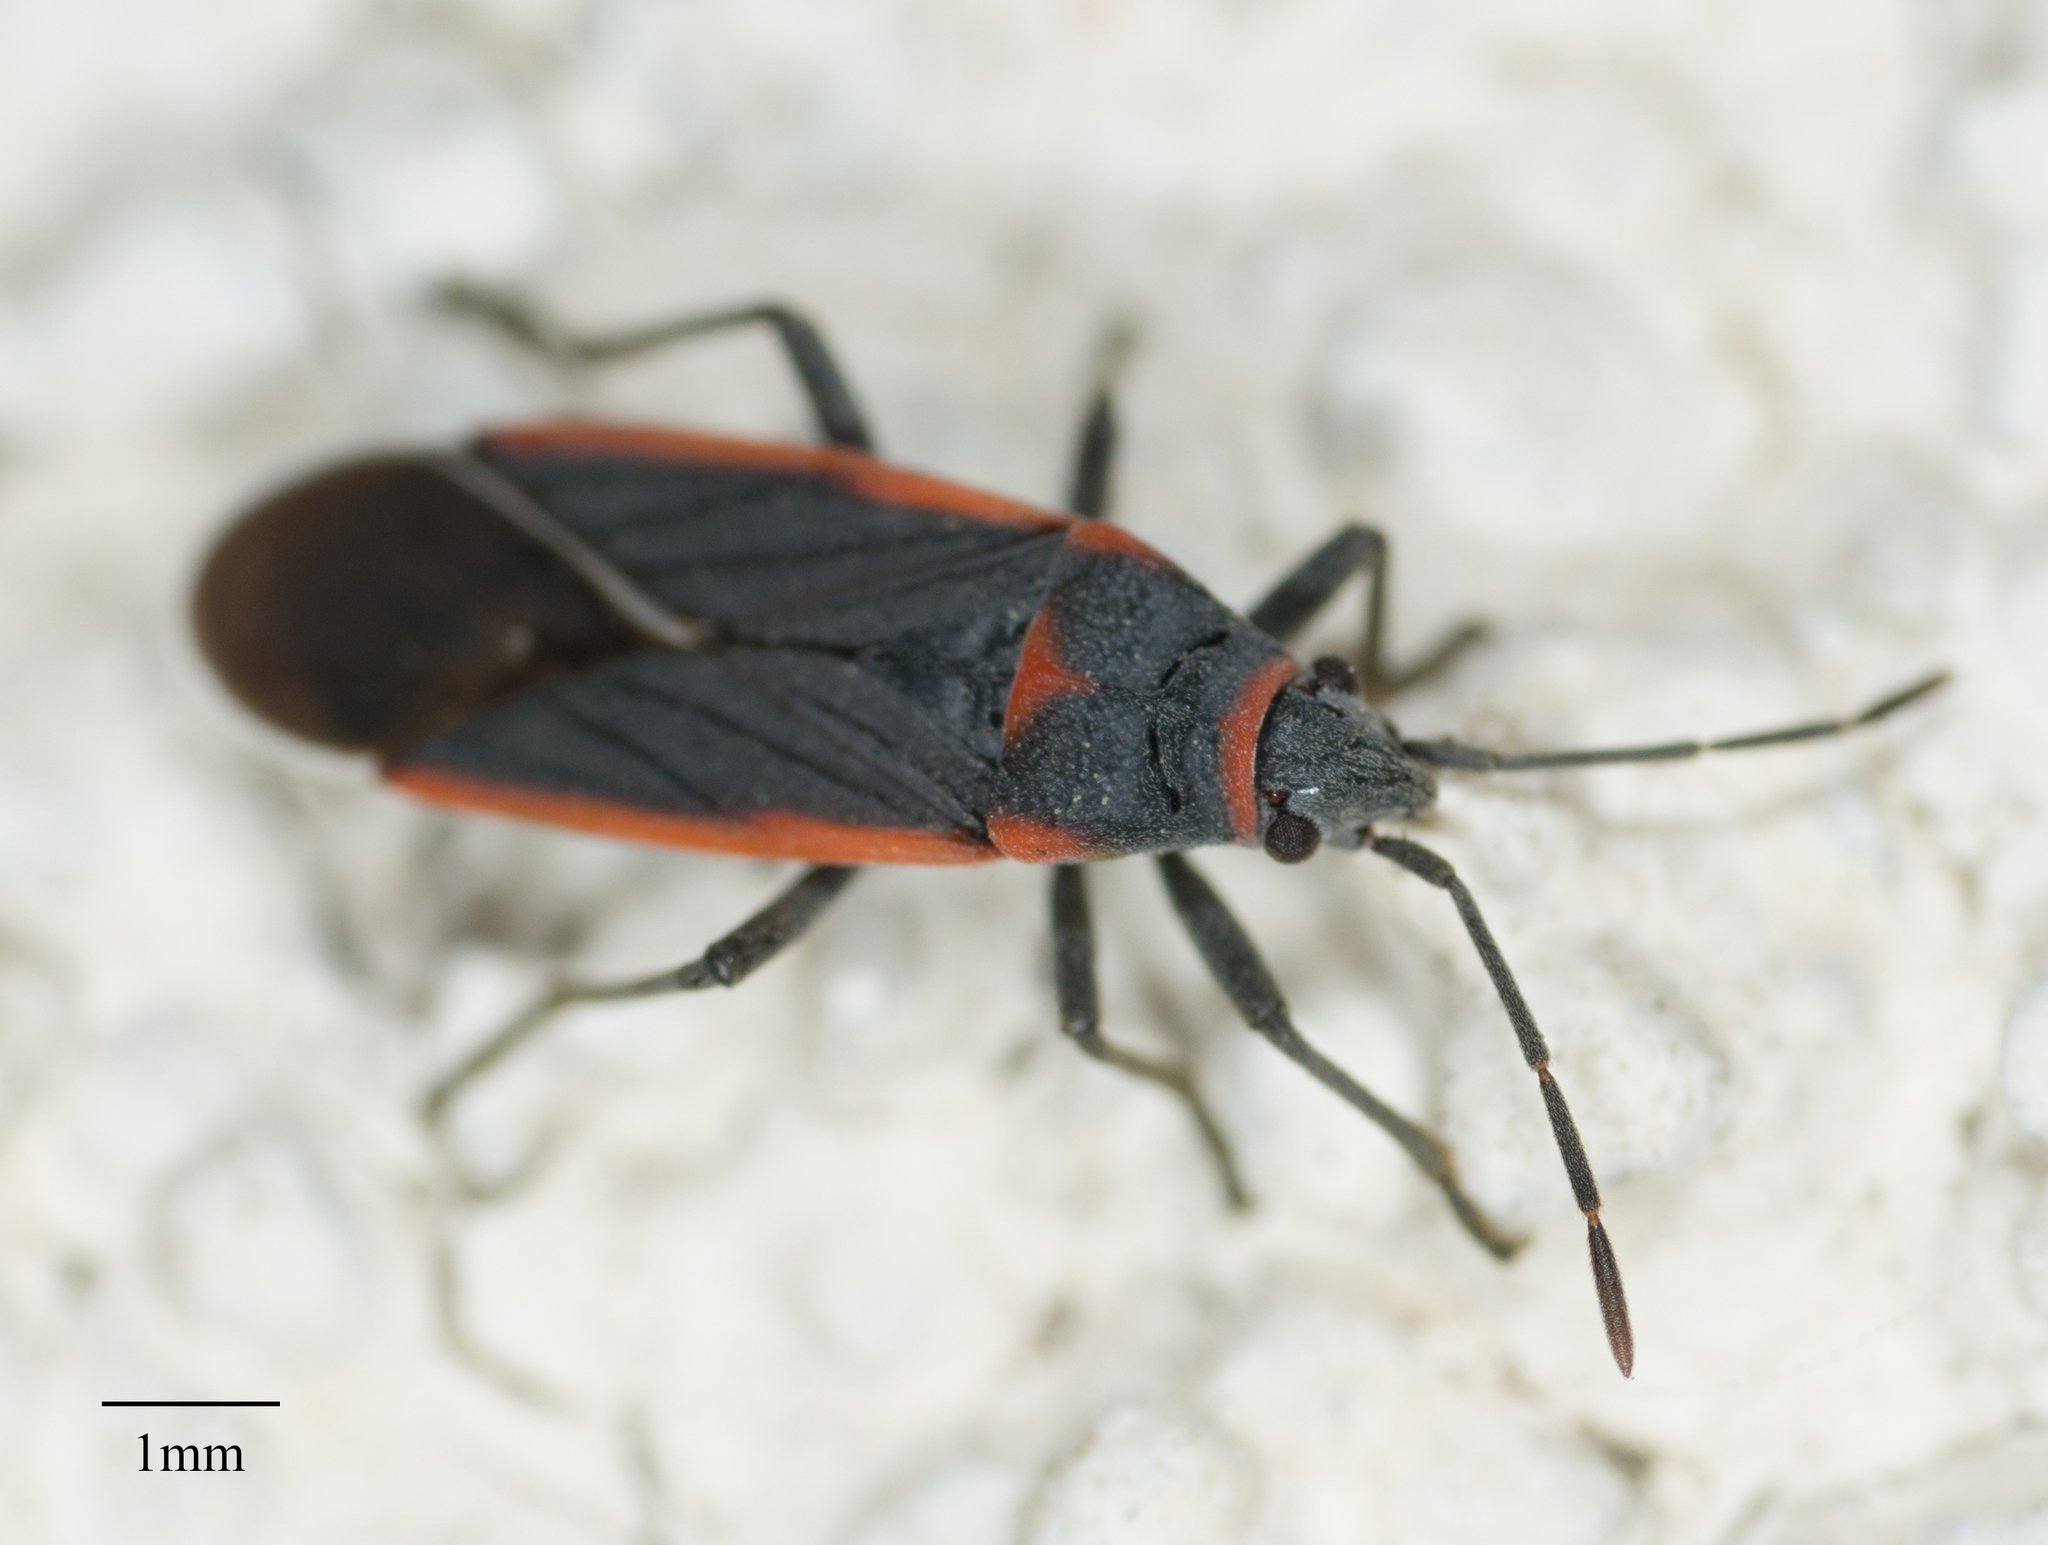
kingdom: Animalia
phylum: Arthropoda
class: Insecta
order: Hemiptera
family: Lygaeidae
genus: Melacoryphus
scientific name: Melacoryphus lateralis
